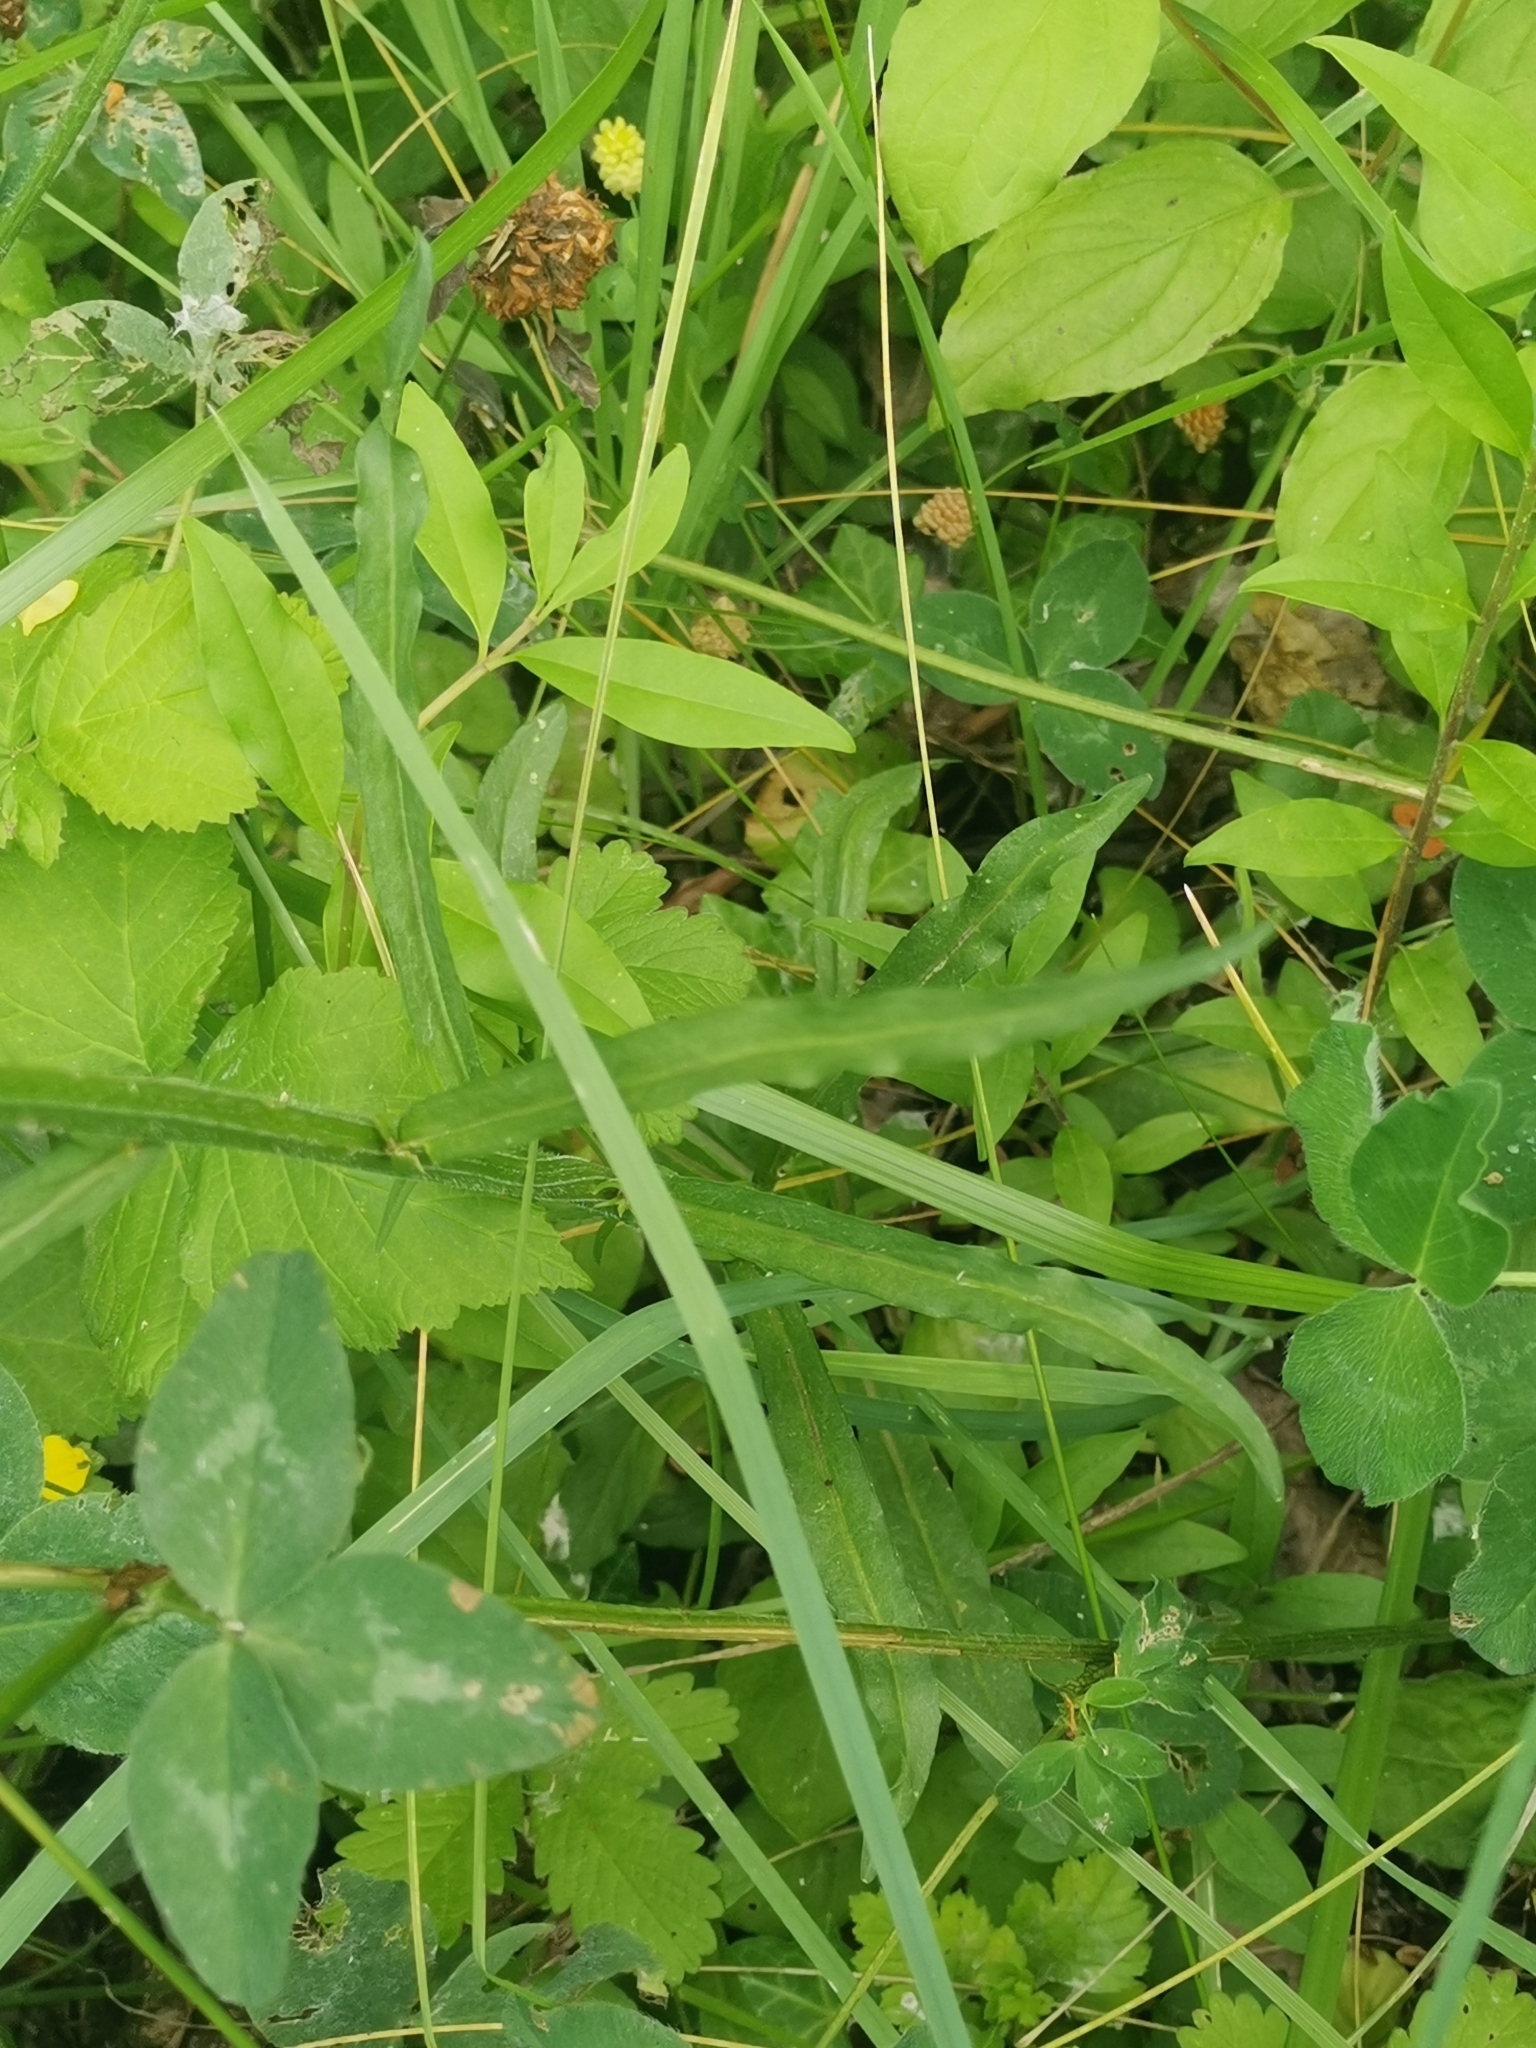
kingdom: Plantae
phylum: Tracheophyta
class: Magnoliopsida
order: Asterales
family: Campanulaceae
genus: Campanula
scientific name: Campanula rapunculus
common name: Rampion bellflower
